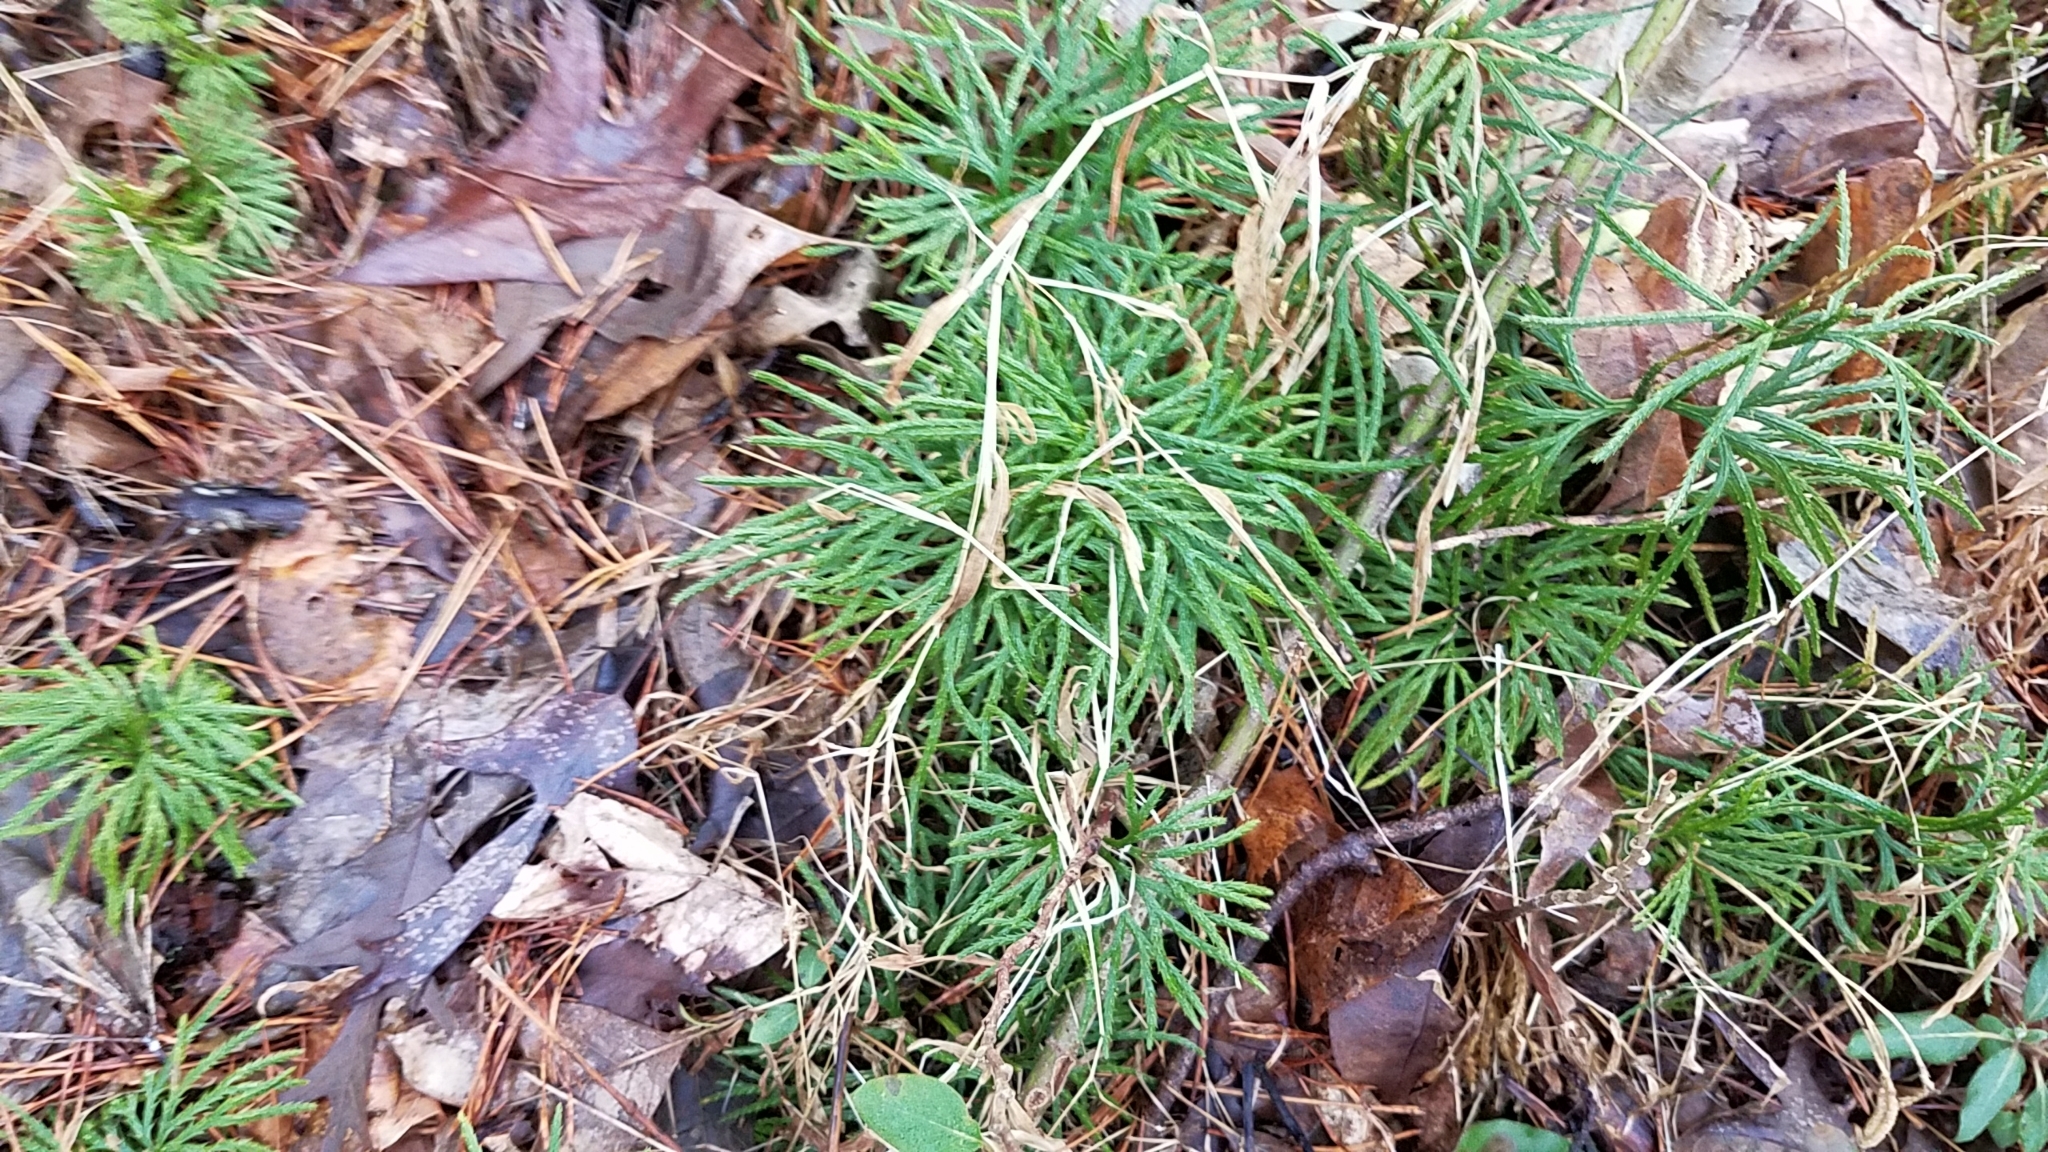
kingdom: Plantae
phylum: Tracheophyta
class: Lycopodiopsida
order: Lycopodiales
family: Lycopodiaceae
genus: Diphasiastrum
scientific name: Diphasiastrum digitatum
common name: Southern running-pine
